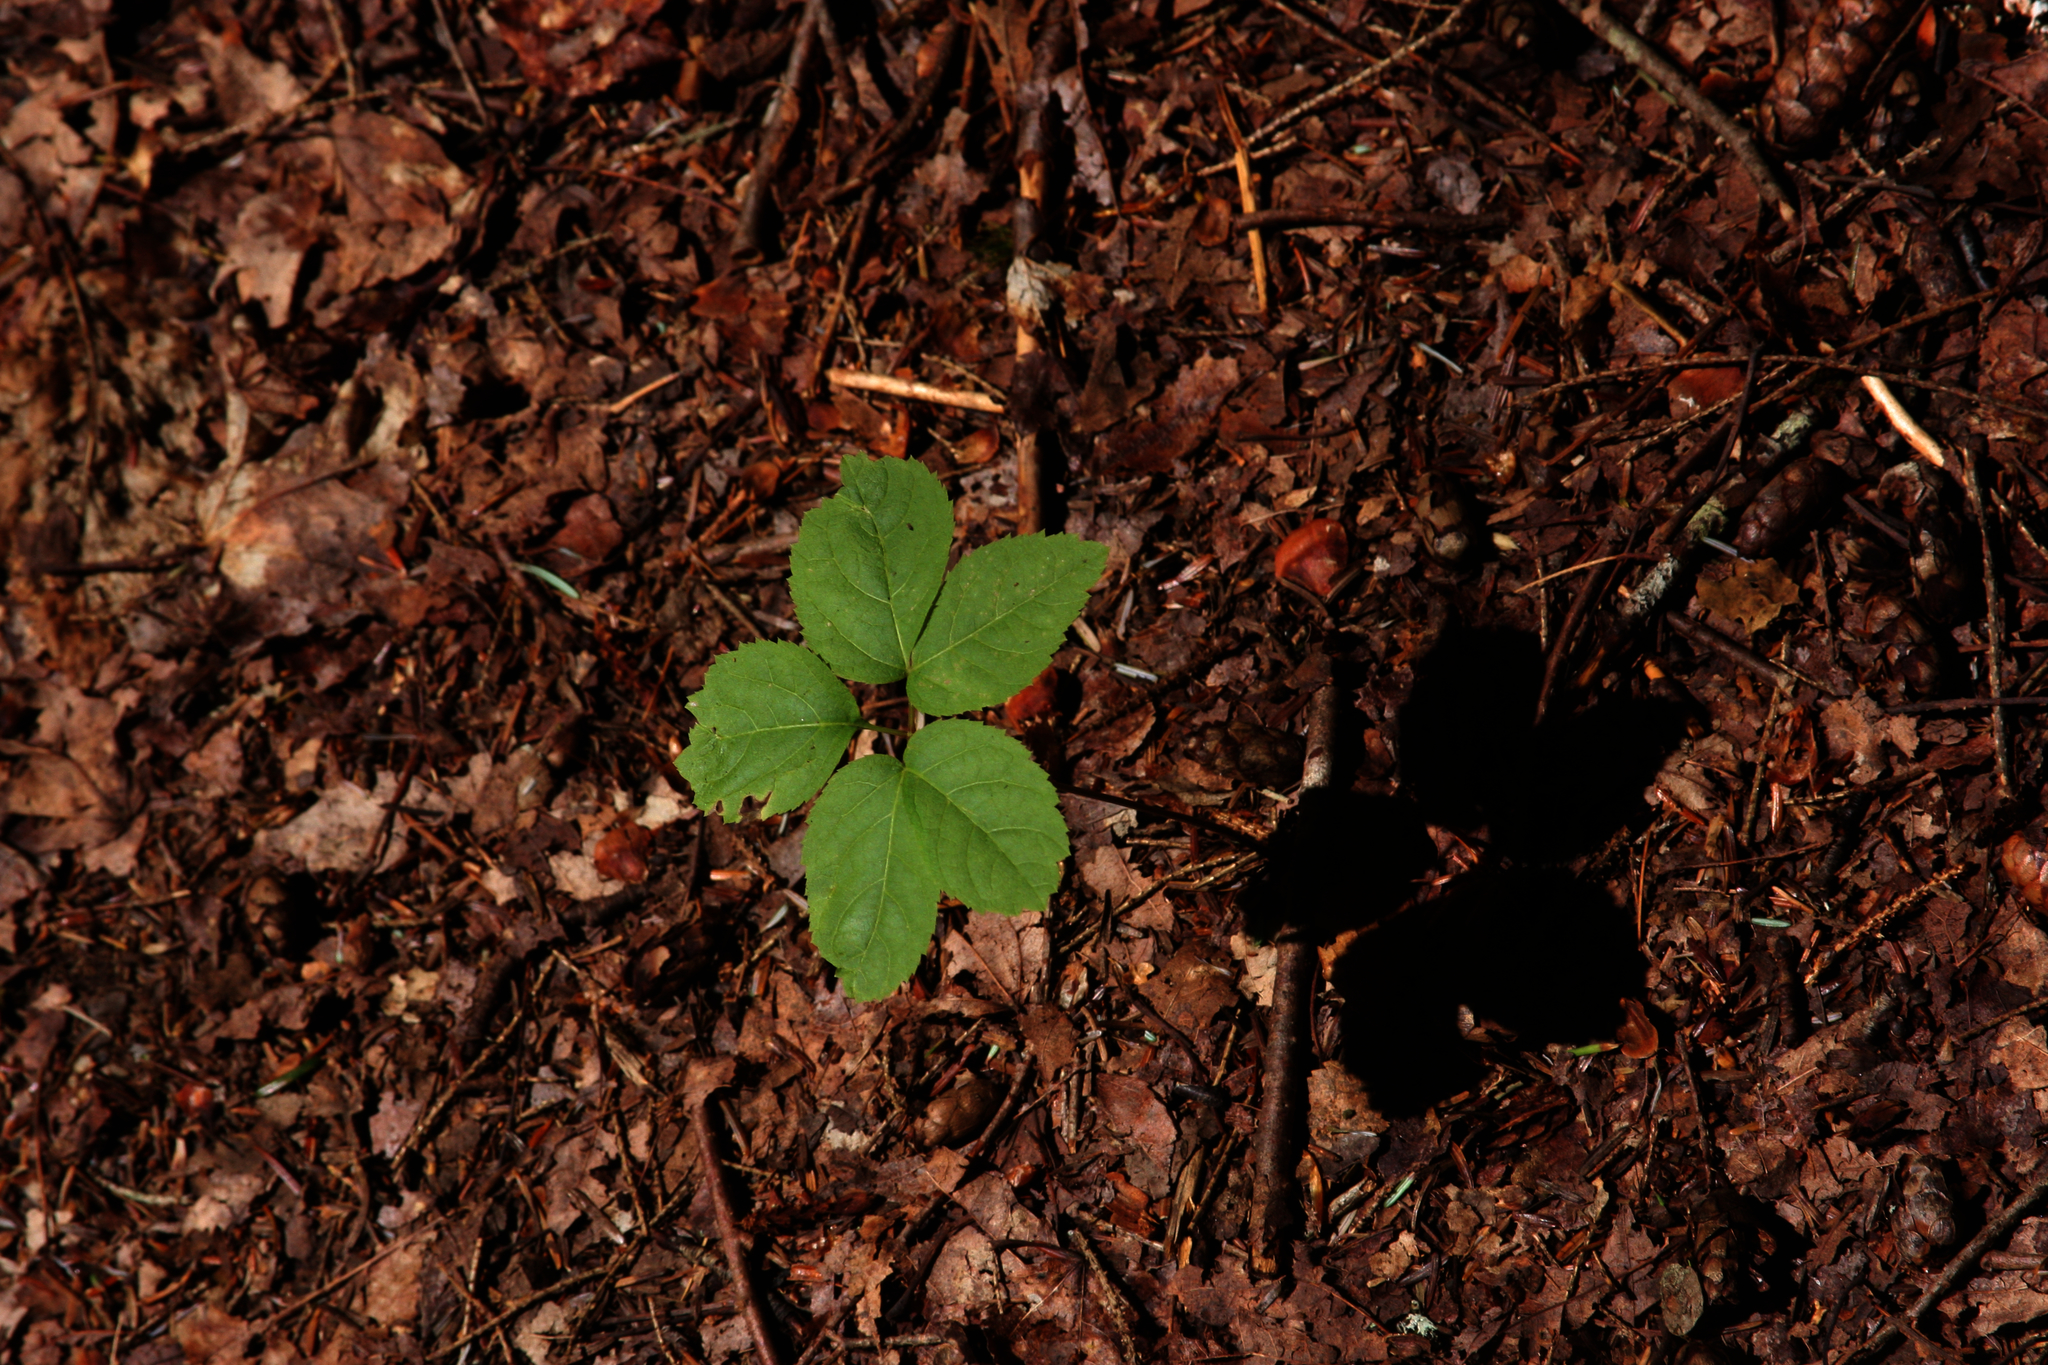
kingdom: Plantae
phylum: Tracheophyta
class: Magnoliopsida
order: Apiales
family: Araliaceae
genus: Aralia
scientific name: Aralia nudicaulis
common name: Wild sarsaparilla
